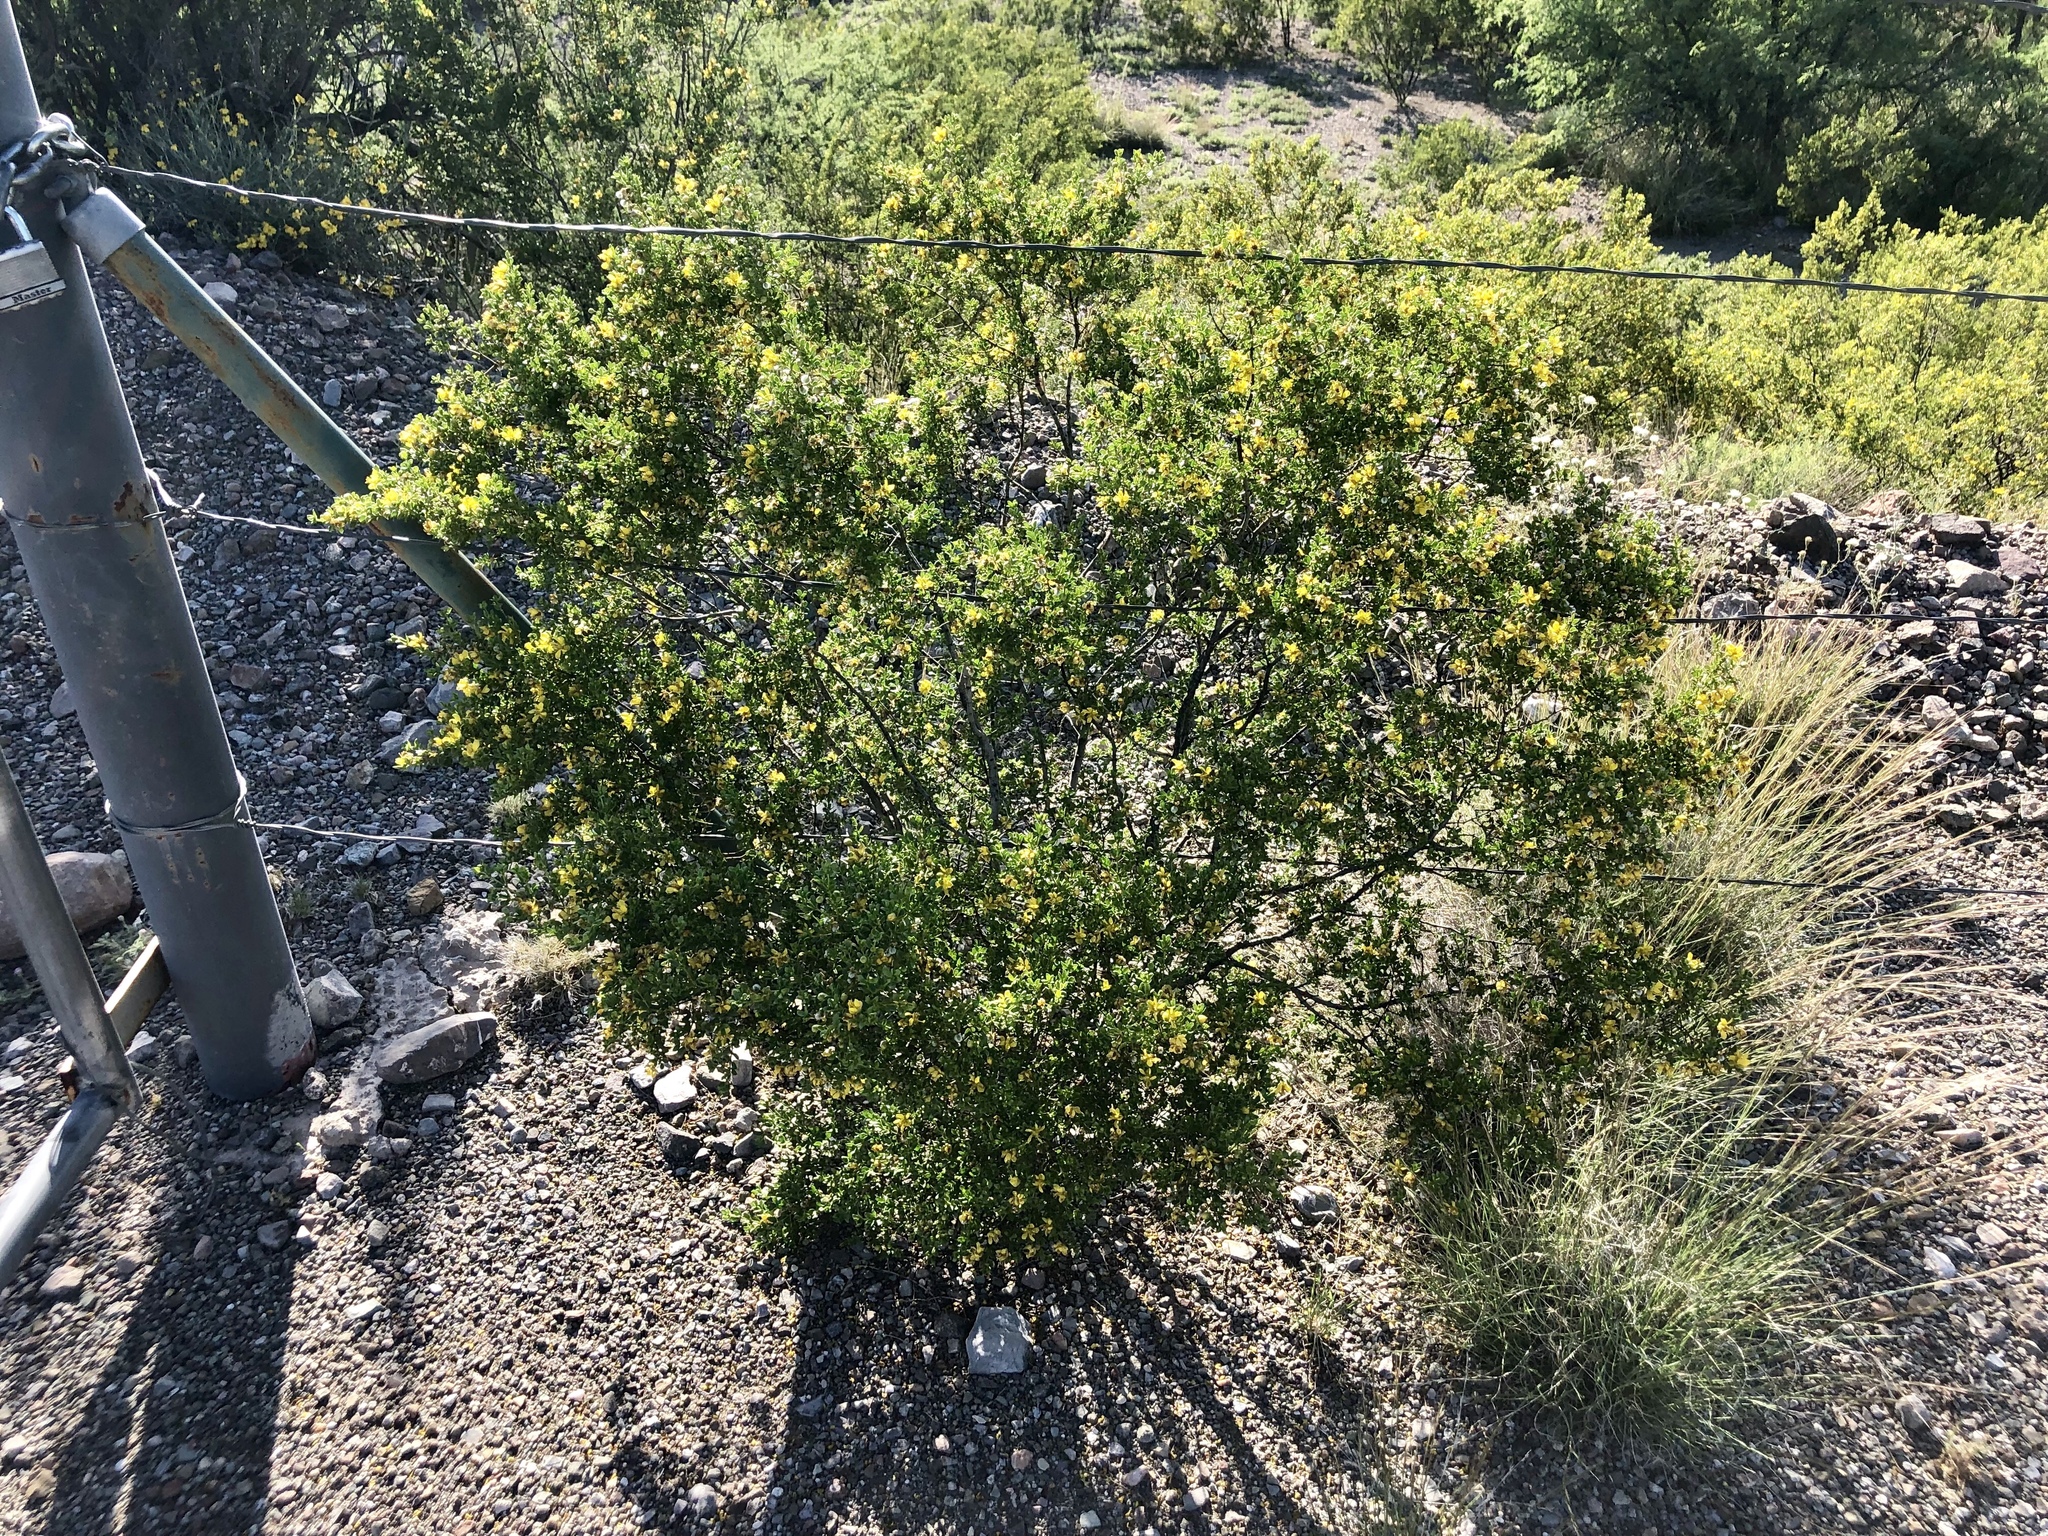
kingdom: Plantae
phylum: Tracheophyta
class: Magnoliopsida
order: Zygophyllales
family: Zygophyllaceae
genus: Larrea
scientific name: Larrea tridentata
